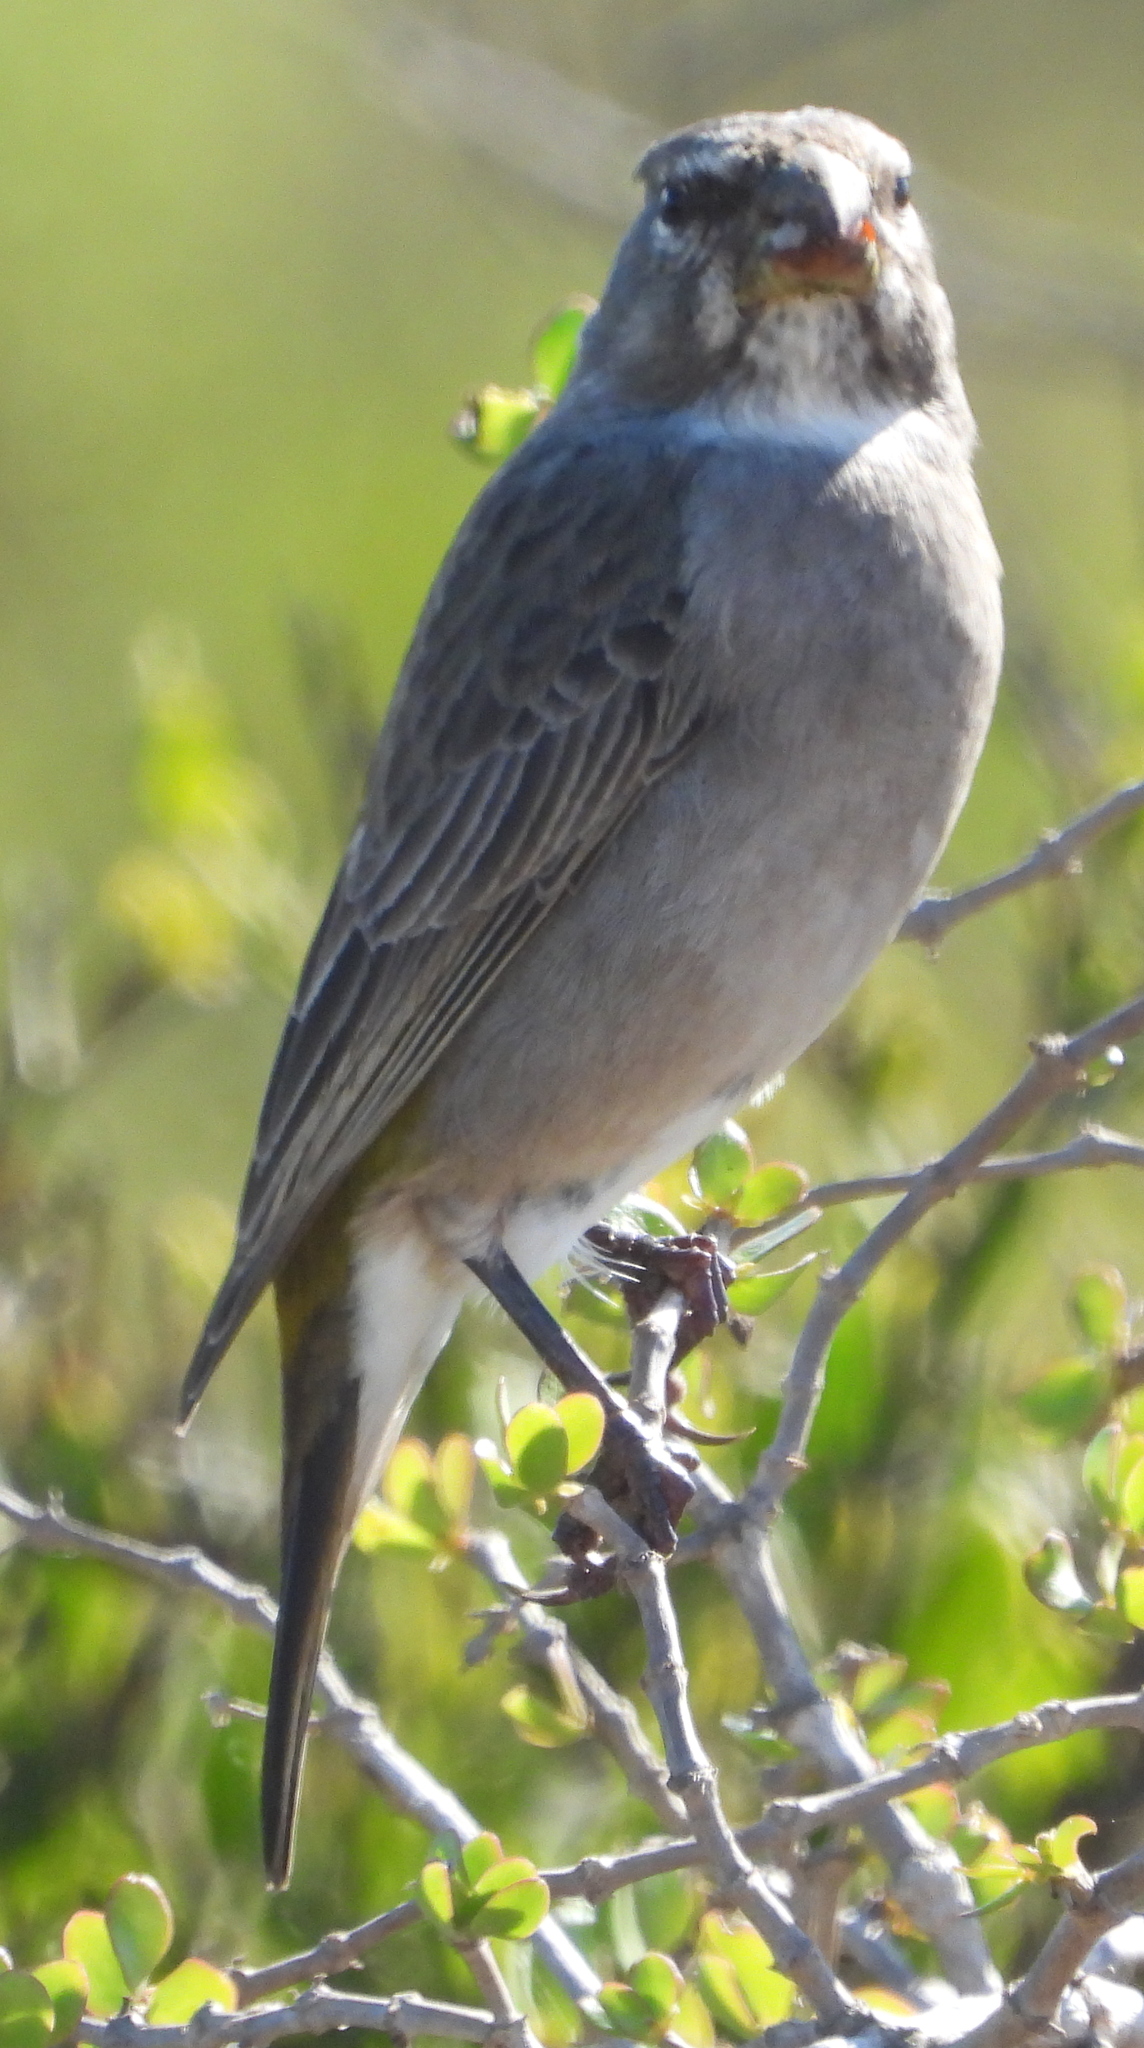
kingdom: Animalia
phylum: Chordata
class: Aves
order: Passeriformes
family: Fringillidae
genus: Crithagra
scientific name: Crithagra albogularis
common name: White-throated canary
